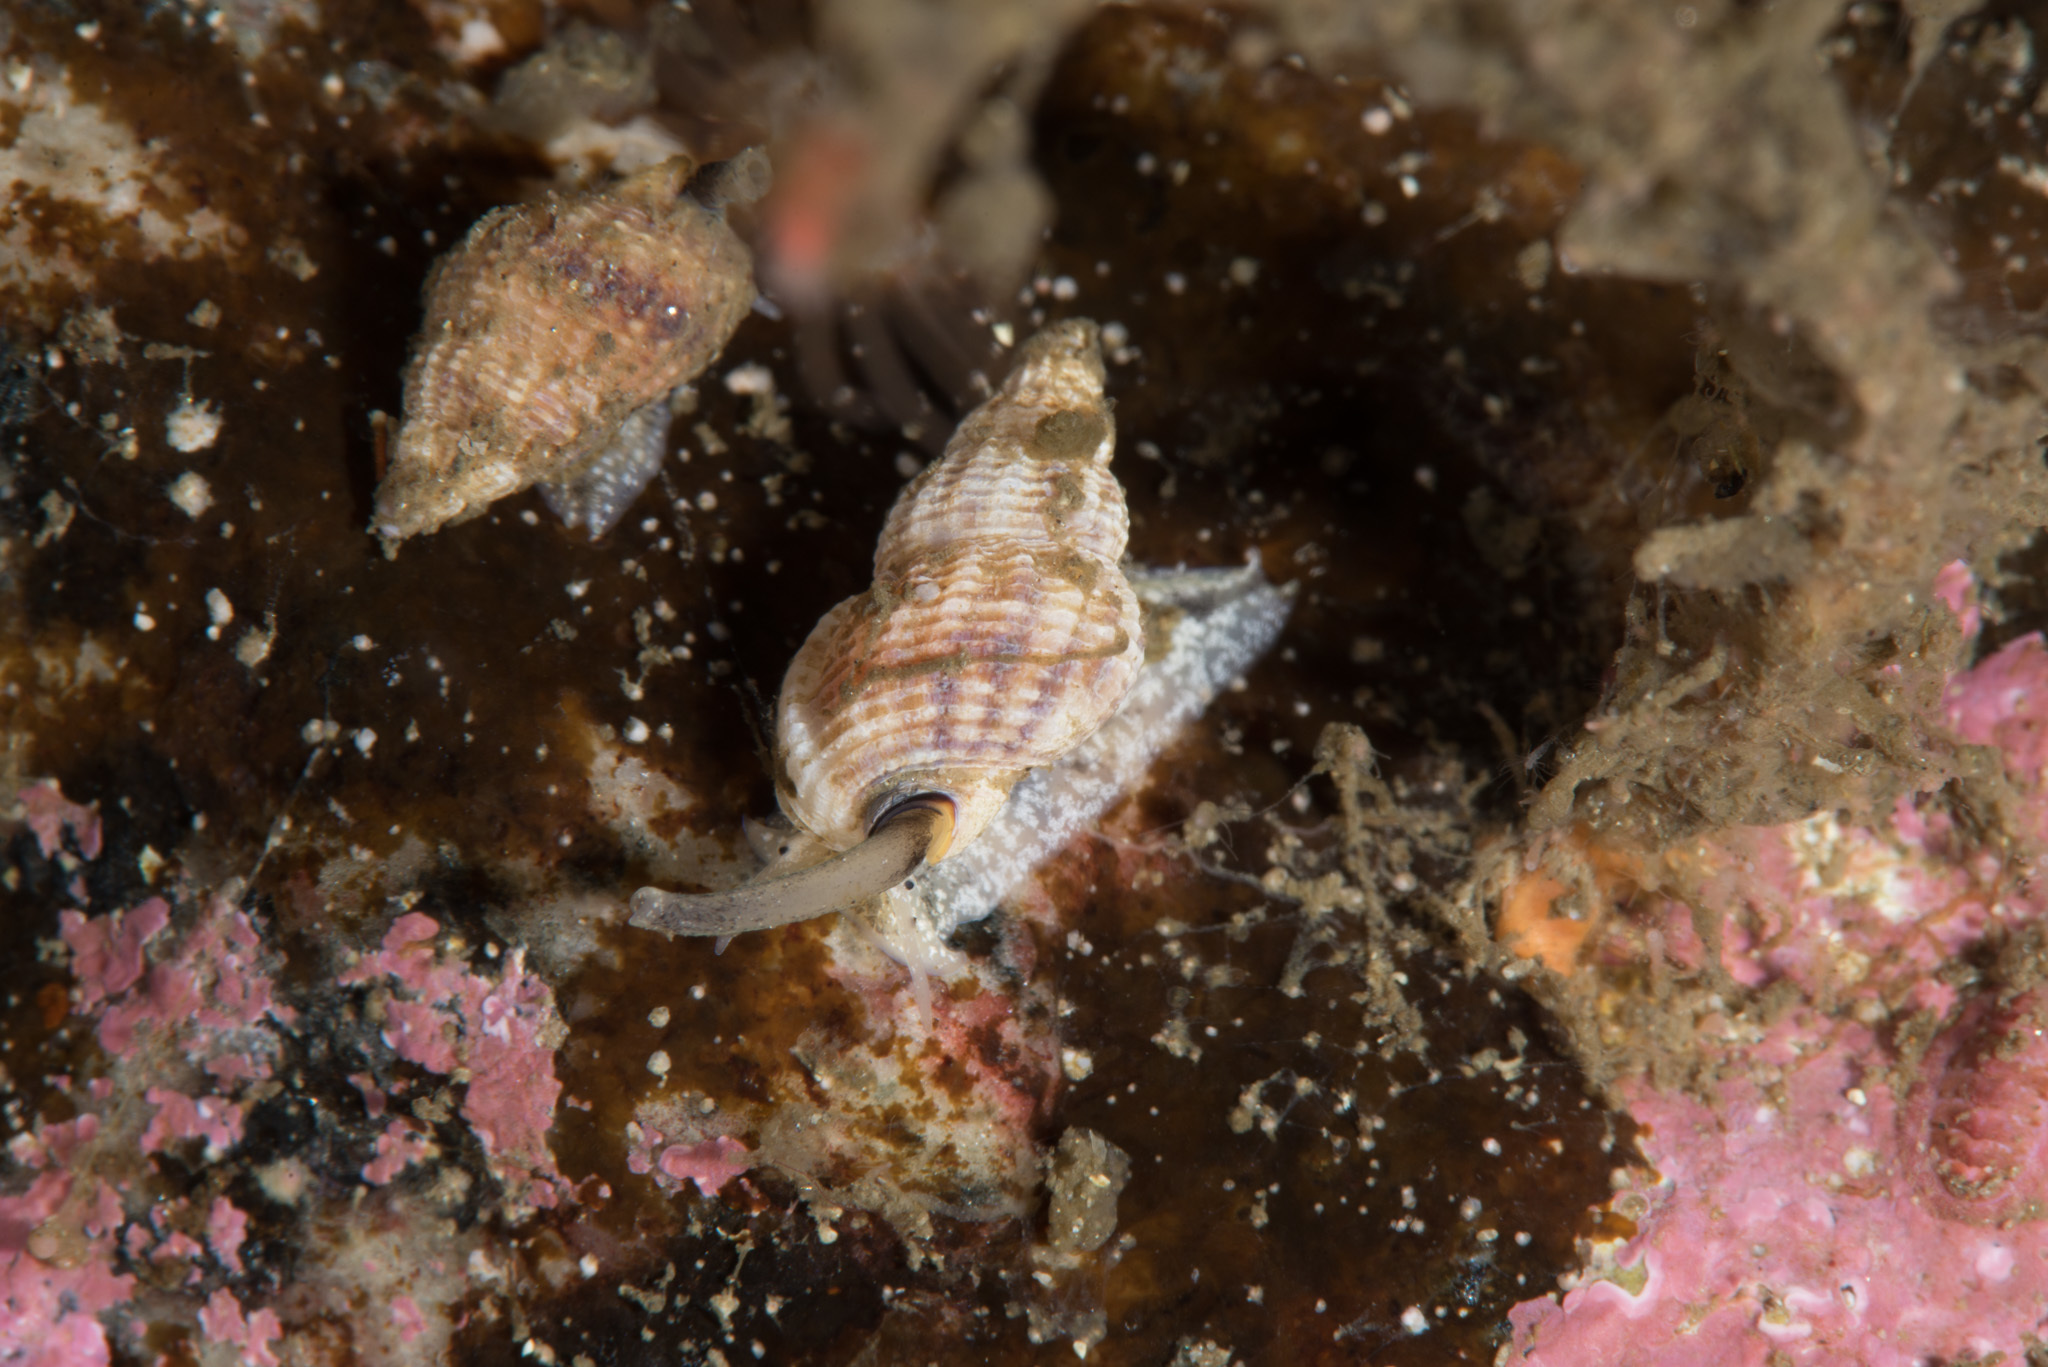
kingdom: Animalia
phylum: Mollusca
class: Gastropoda
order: Neogastropoda
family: Nassariidae
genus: Tritia
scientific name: Tritia incrassata
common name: Thick-lipped dog whelk
